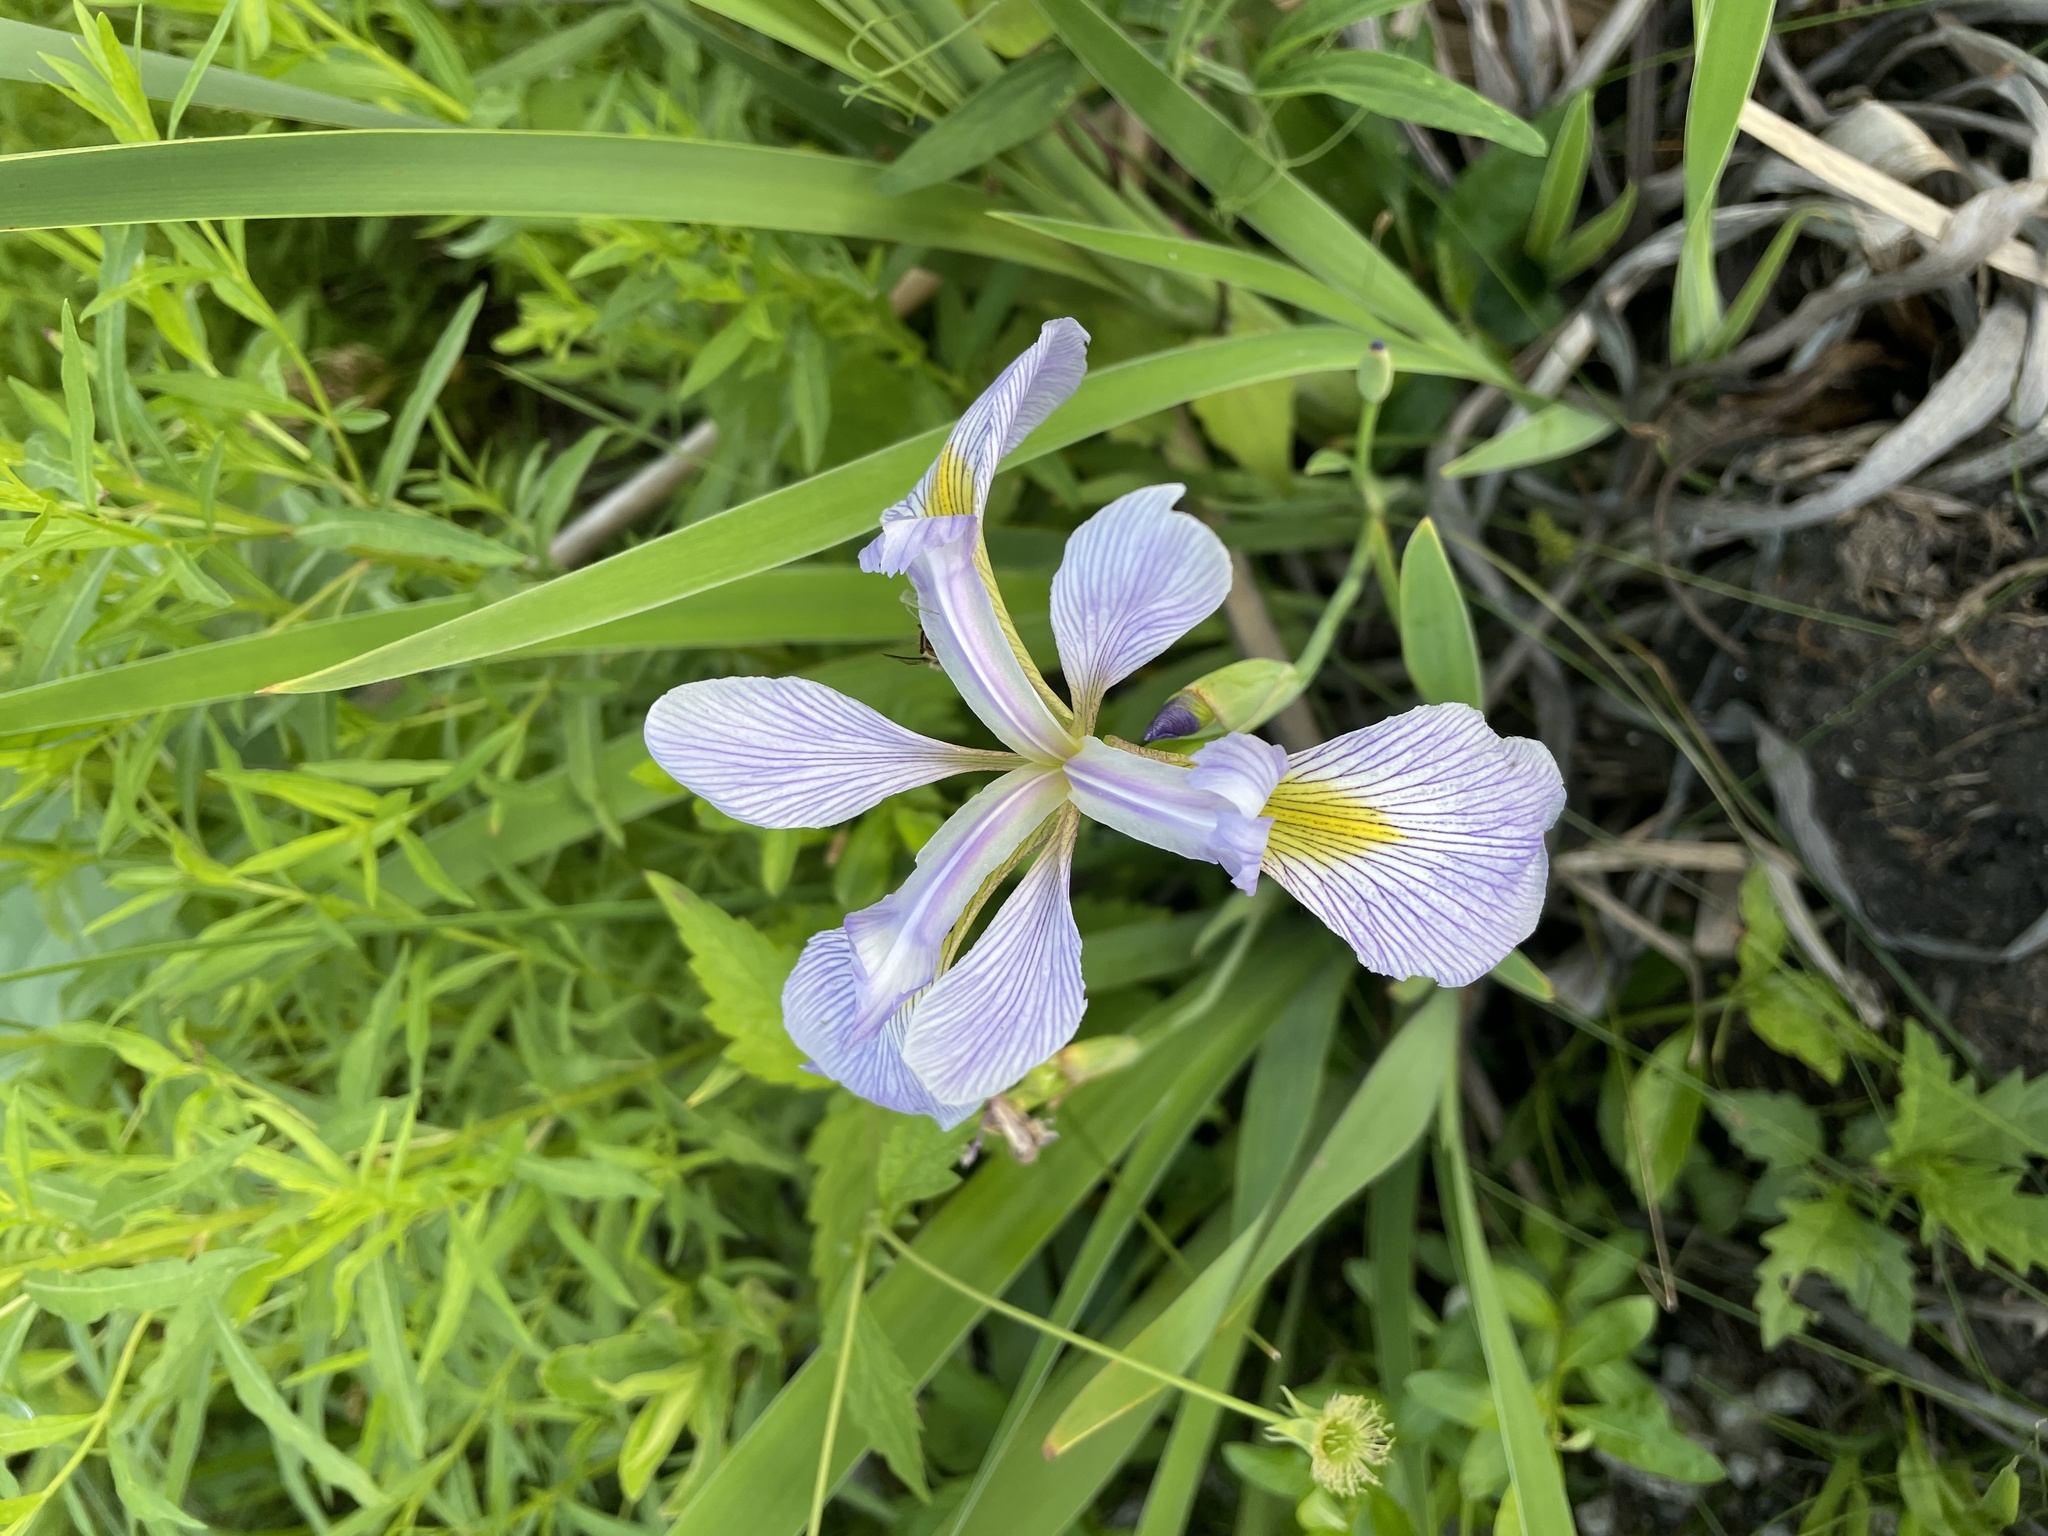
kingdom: Plantae
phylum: Tracheophyta
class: Liliopsida
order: Asparagales
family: Iridaceae
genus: Iris
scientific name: Iris virginica
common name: Southern blue flag
